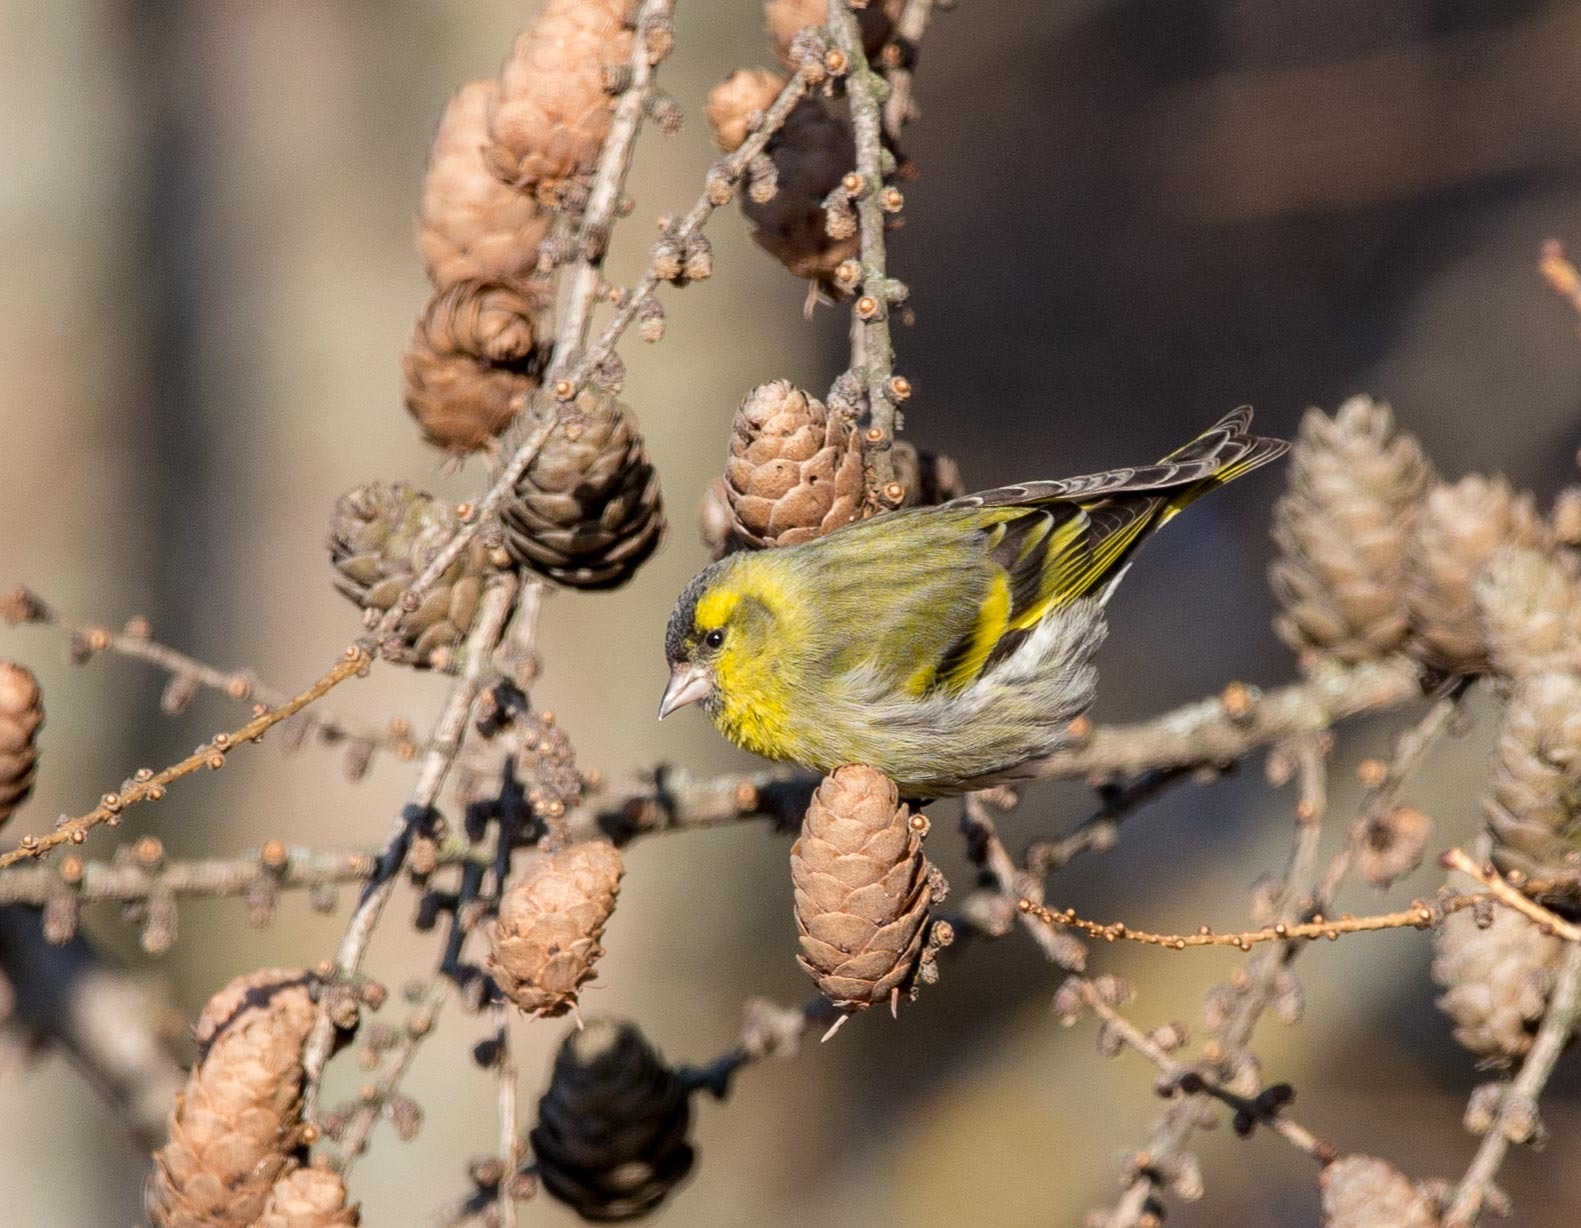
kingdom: Animalia
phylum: Chordata
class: Aves
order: Passeriformes
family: Fringillidae
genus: Spinus
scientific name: Spinus spinus
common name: Eurasian siskin
